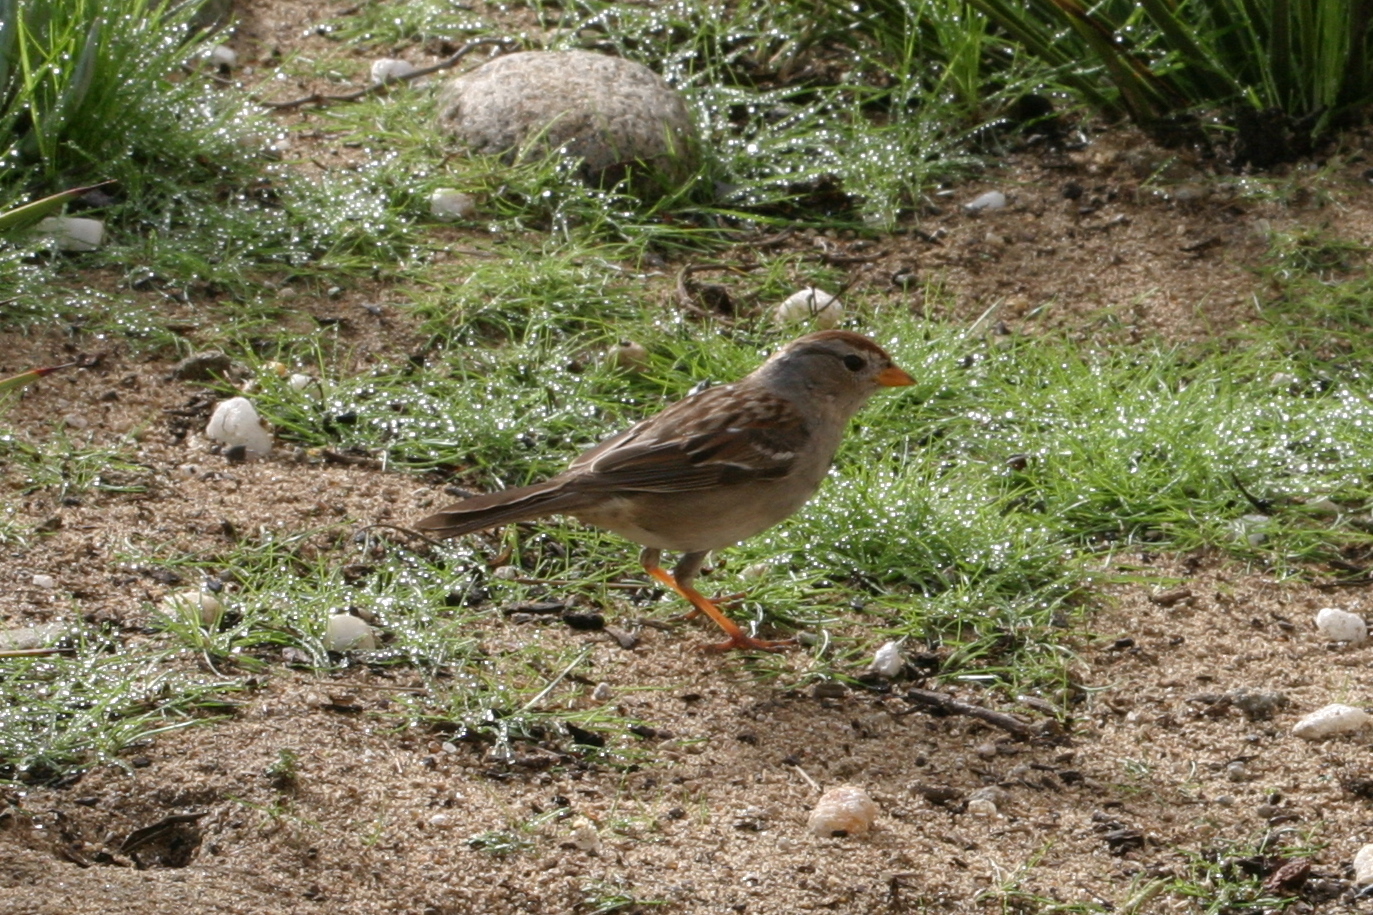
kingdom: Animalia
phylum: Chordata
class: Aves
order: Passeriformes
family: Passerellidae
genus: Zonotrichia
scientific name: Zonotrichia leucophrys
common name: White-crowned sparrow
